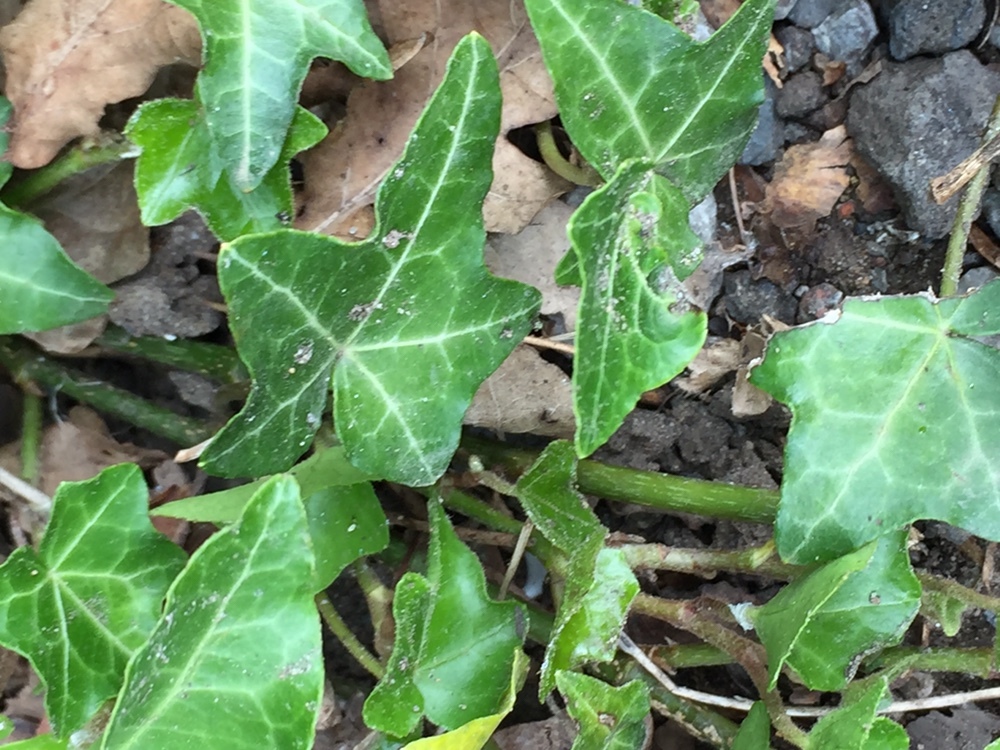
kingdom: Plantae
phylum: Tracheophyta
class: Magnoliopsida
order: Apiales
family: Araliaceae
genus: Hedera
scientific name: Hedera helix
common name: Ivy
